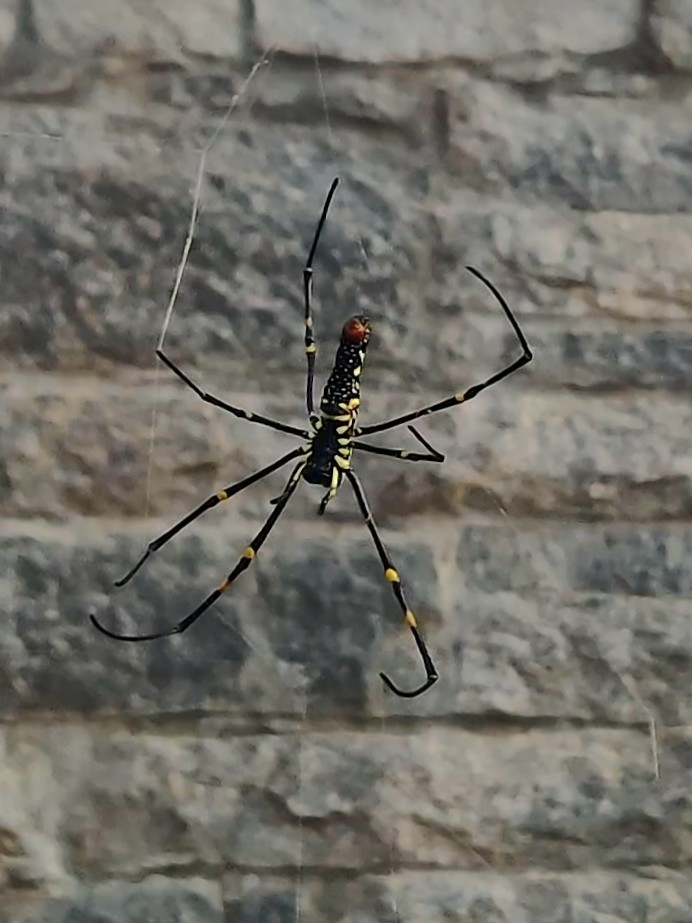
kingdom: Animalia
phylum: Arthropoda
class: Arachnida
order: Araneae
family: Araneidae
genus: Nephila
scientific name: Nephila pilipes
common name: Giant golden orb weaver
